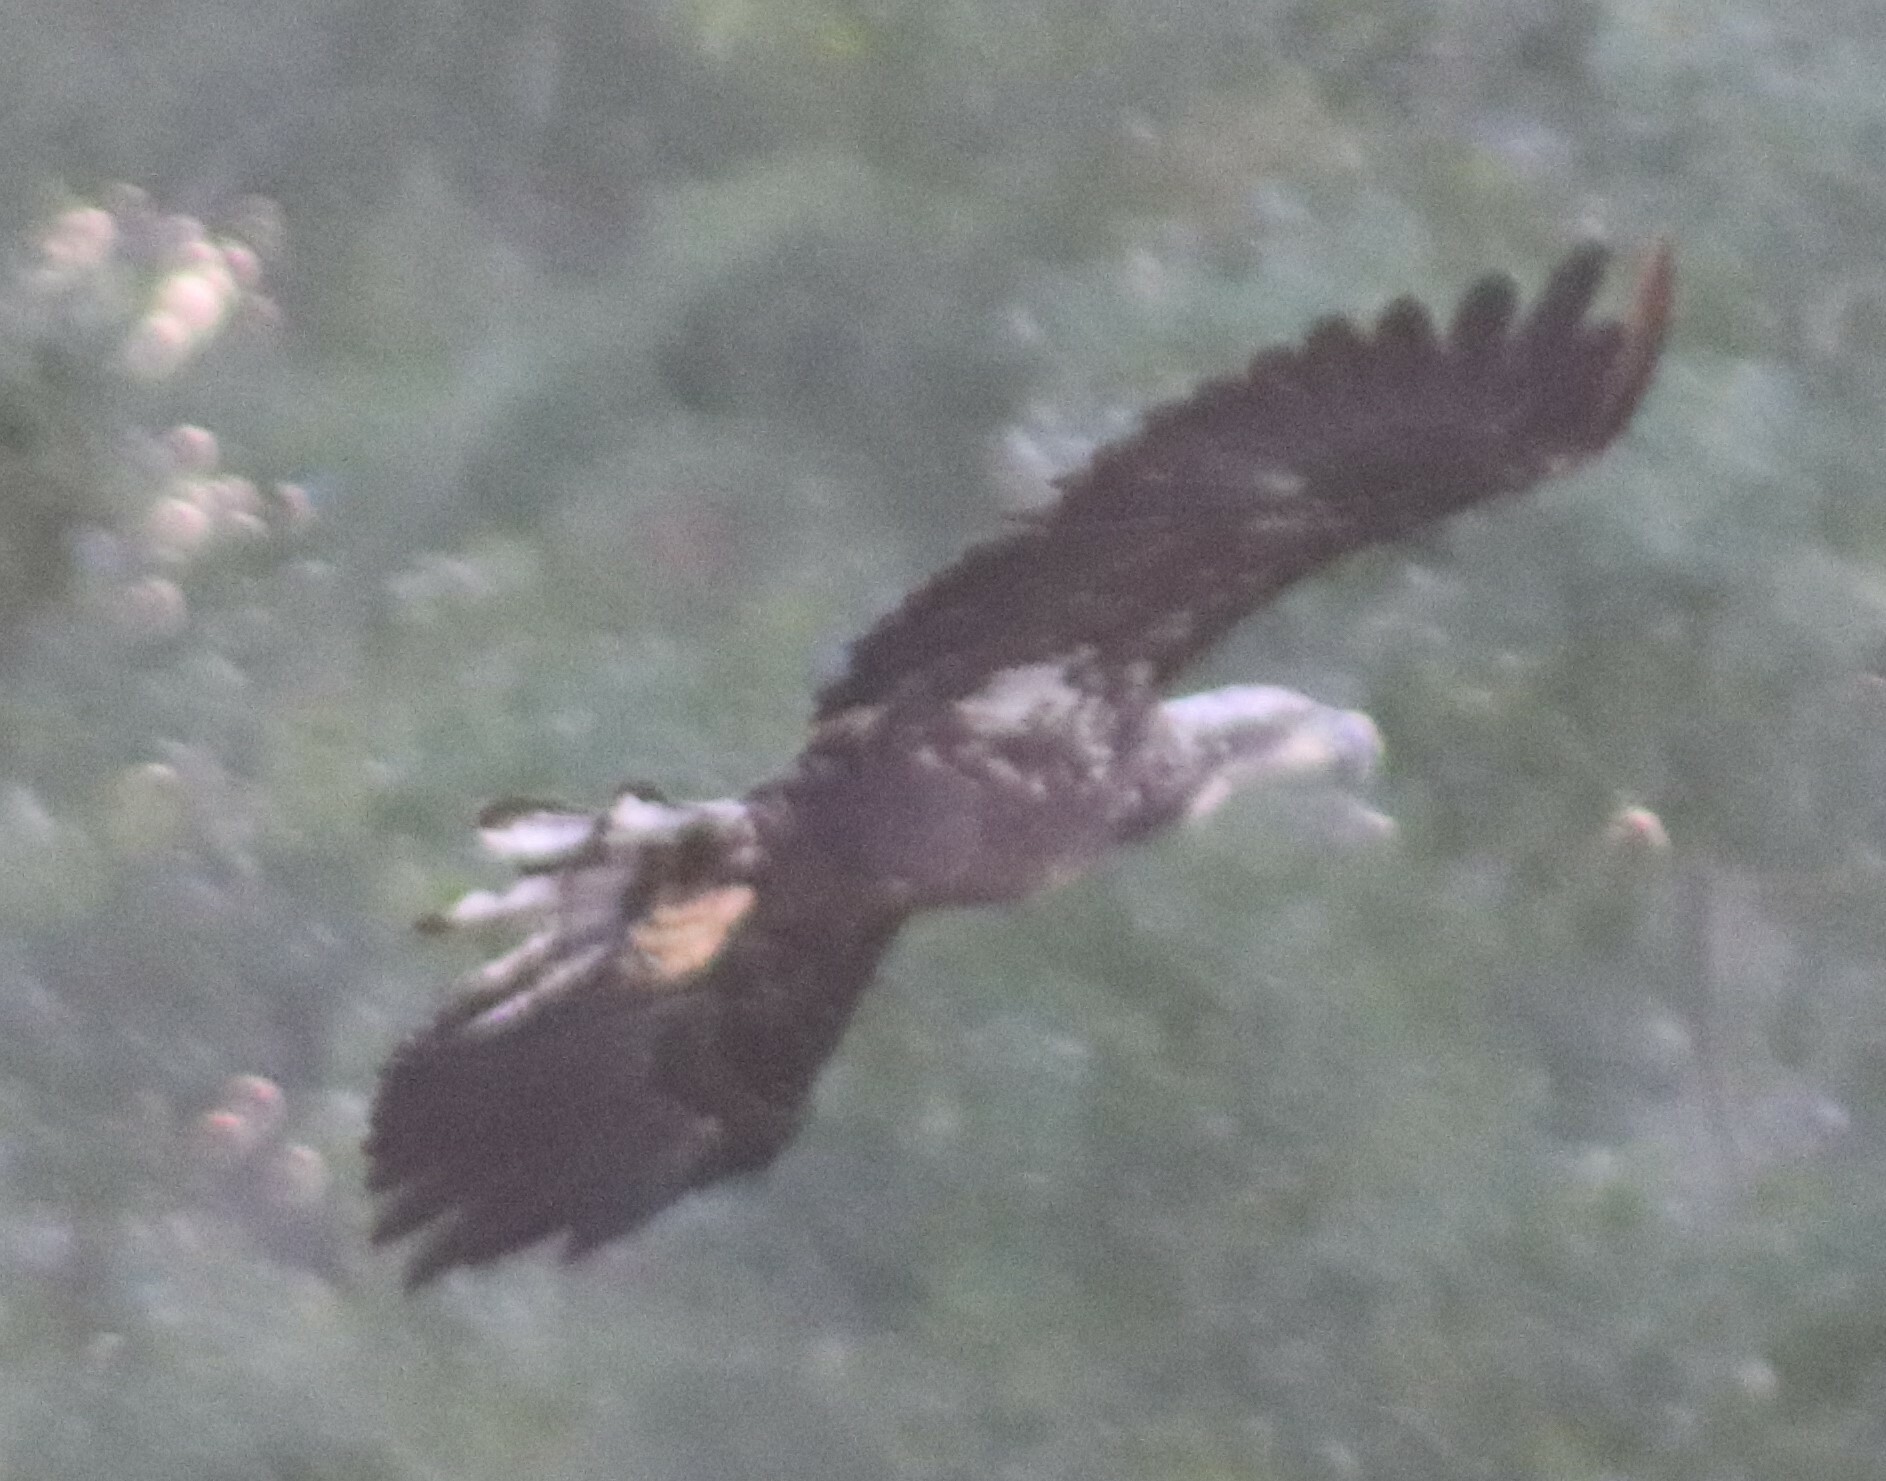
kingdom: Animalia
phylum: Chordata
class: Aves
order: Accipitriformes
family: Accipitridae
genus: Haliaeetus
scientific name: Haliaeetus leucocephalus
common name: Bald eagle
